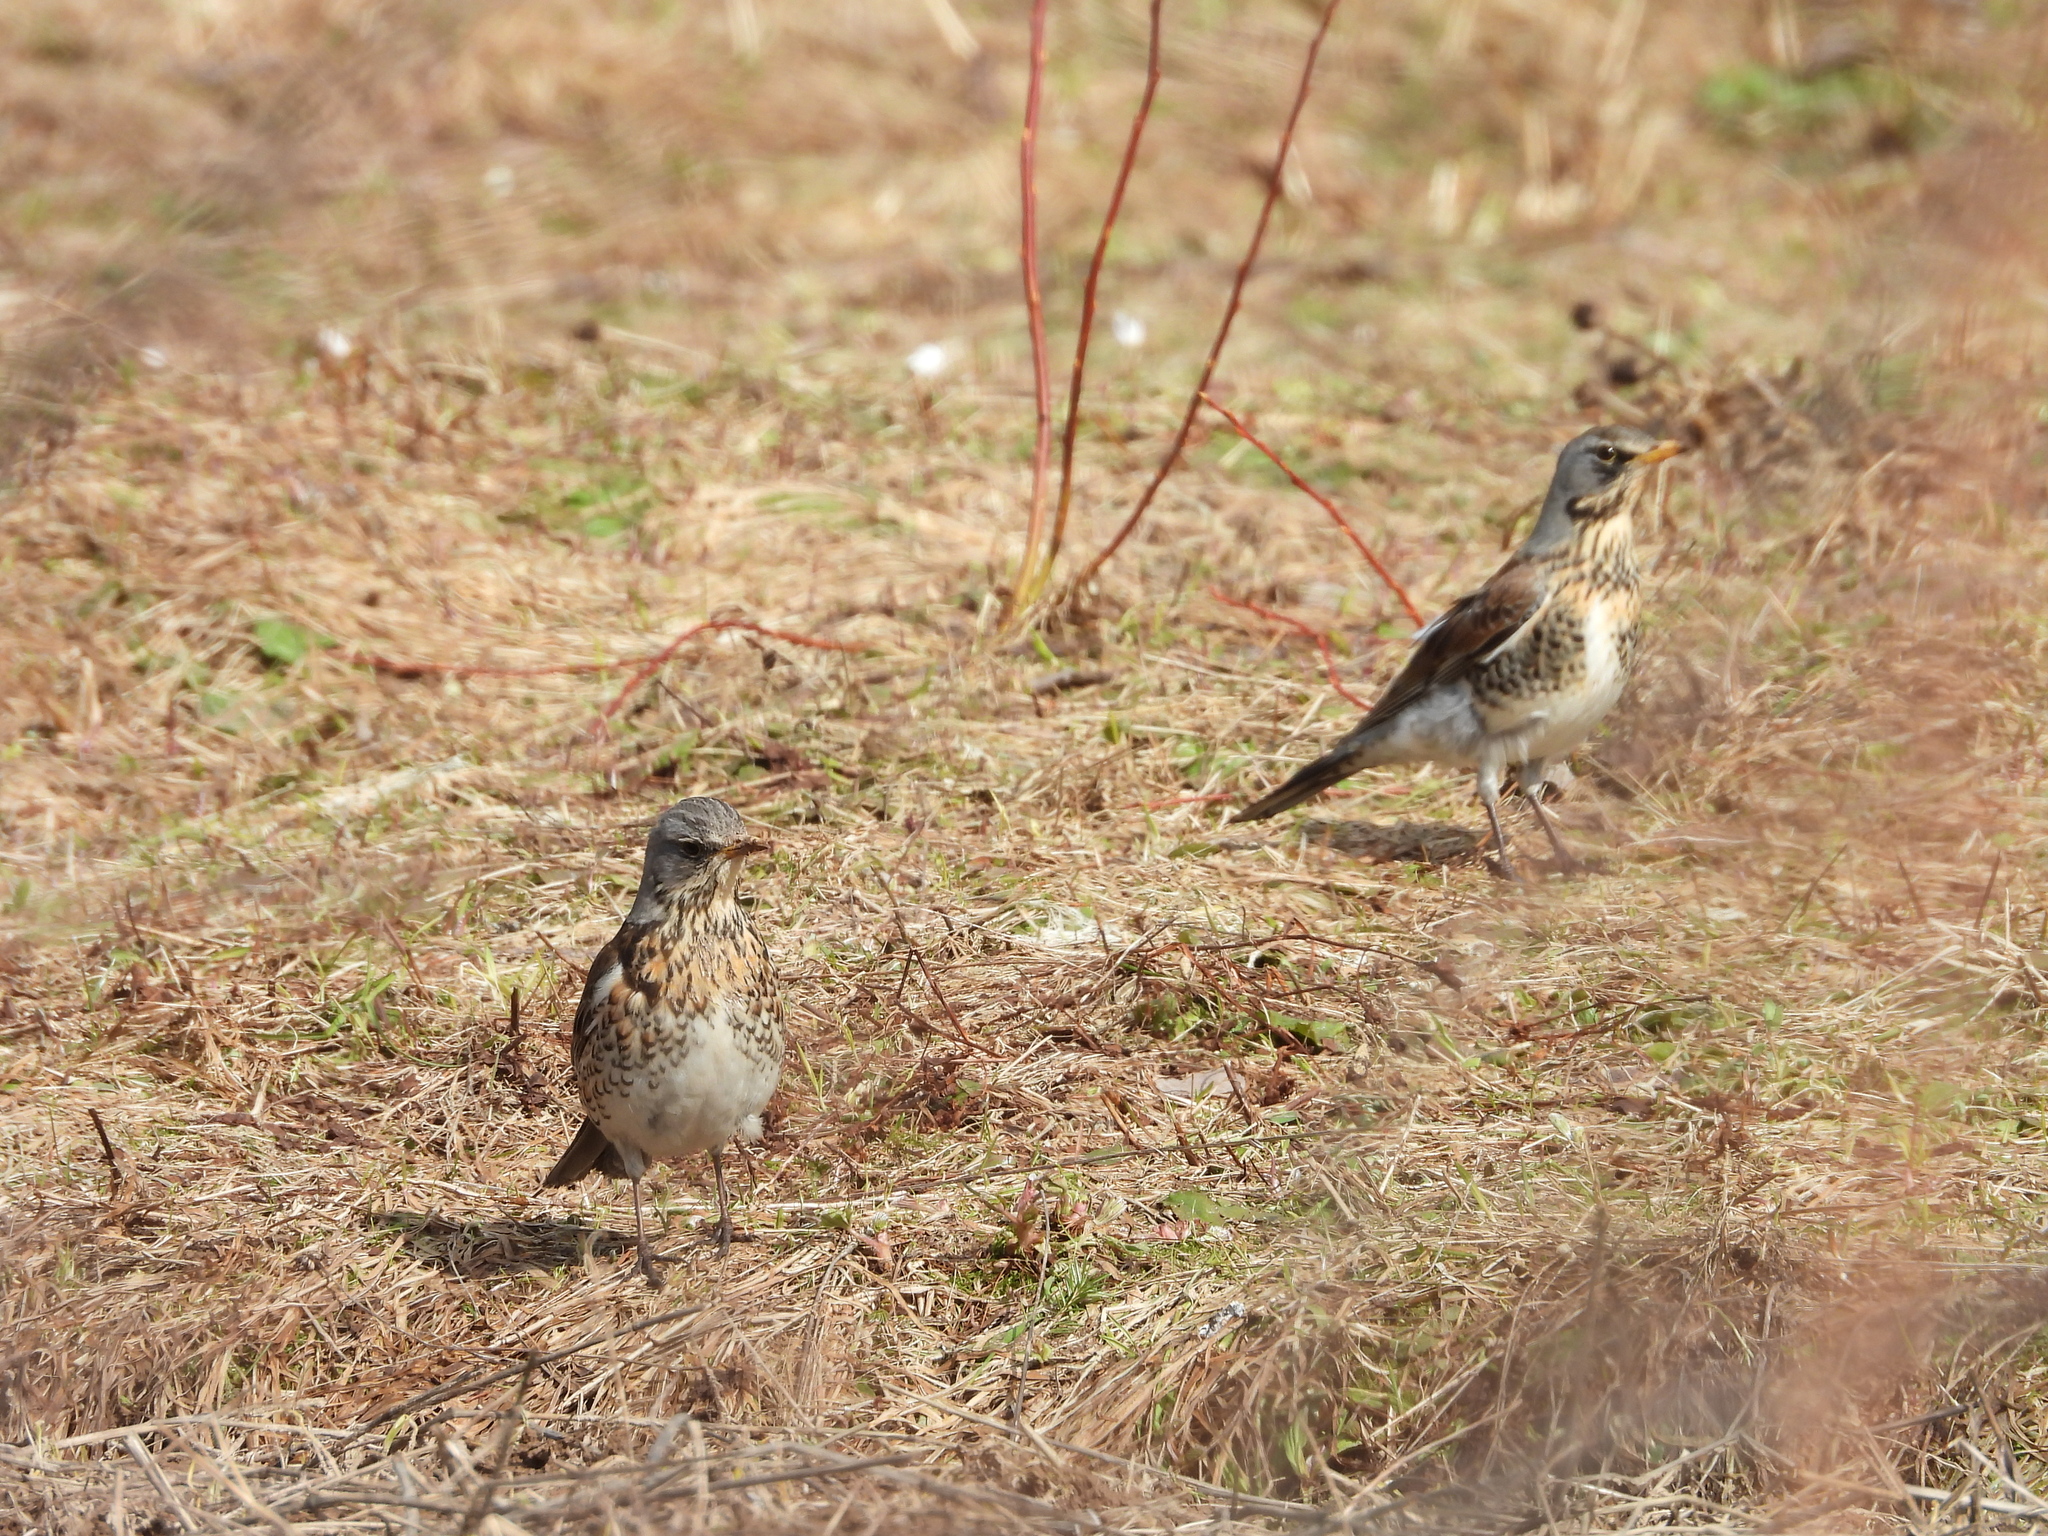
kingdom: Animalia
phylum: Chordata
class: Aves
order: Passeriformes
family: Turdidae
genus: Turdus
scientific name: Turdus pilaris
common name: Fieldfare
